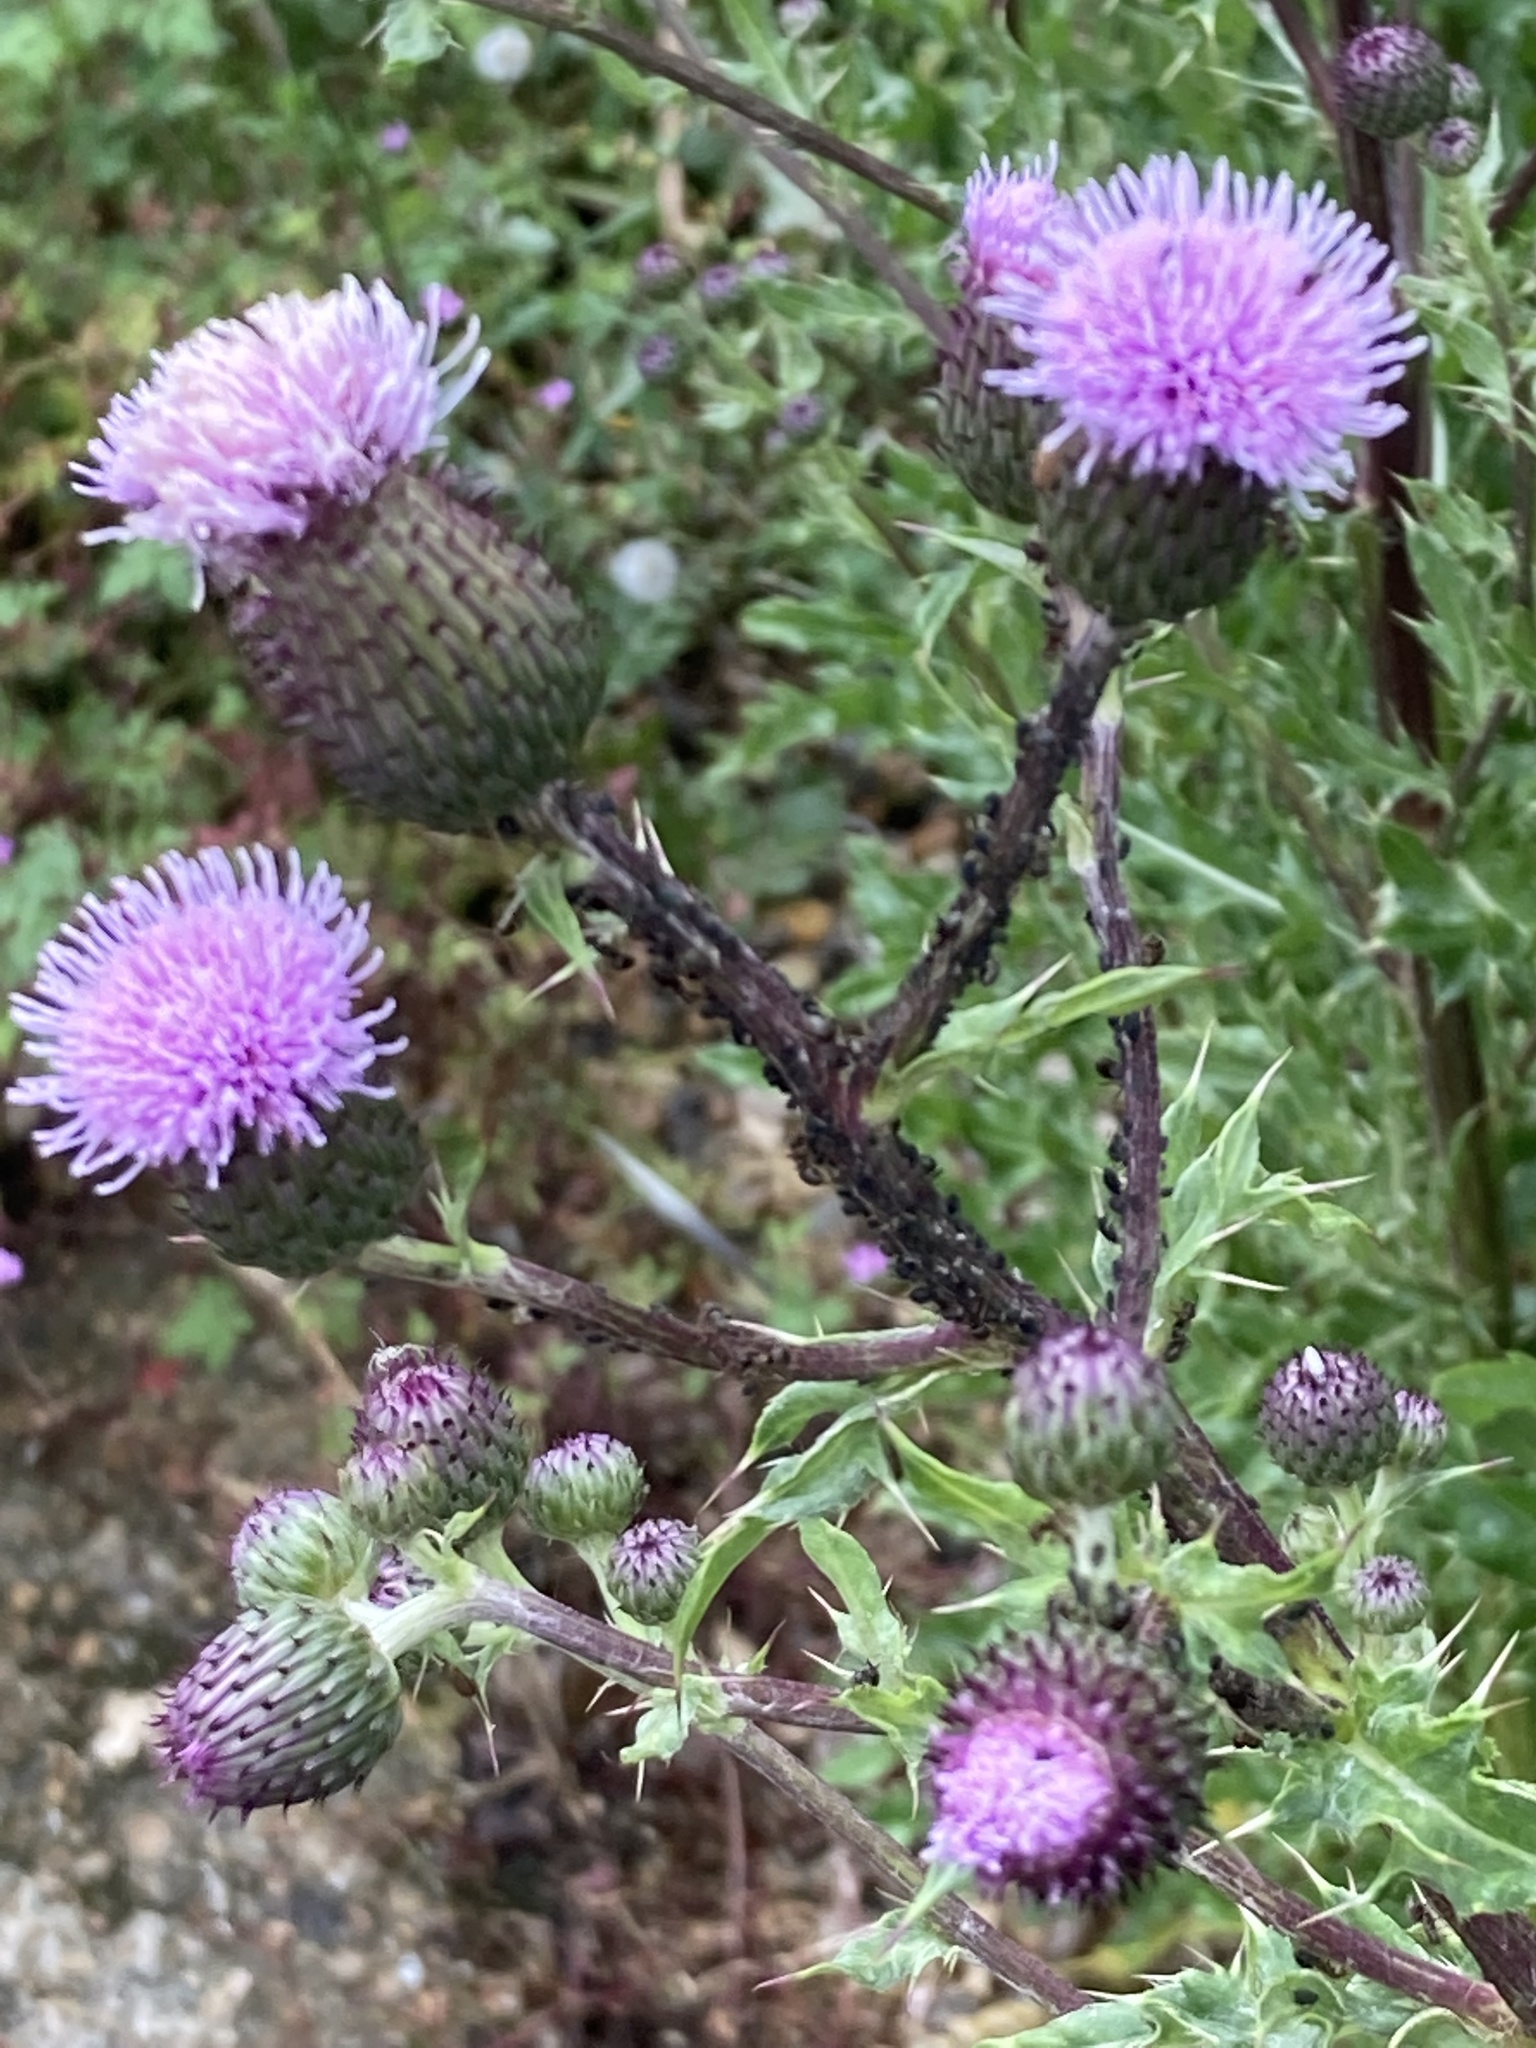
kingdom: Plantae
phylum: Tracheophyta
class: Magnoliopsida
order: Asterales
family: Asteraceae
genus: Cirsium
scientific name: Cirsium arvense
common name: Creeping thistle
